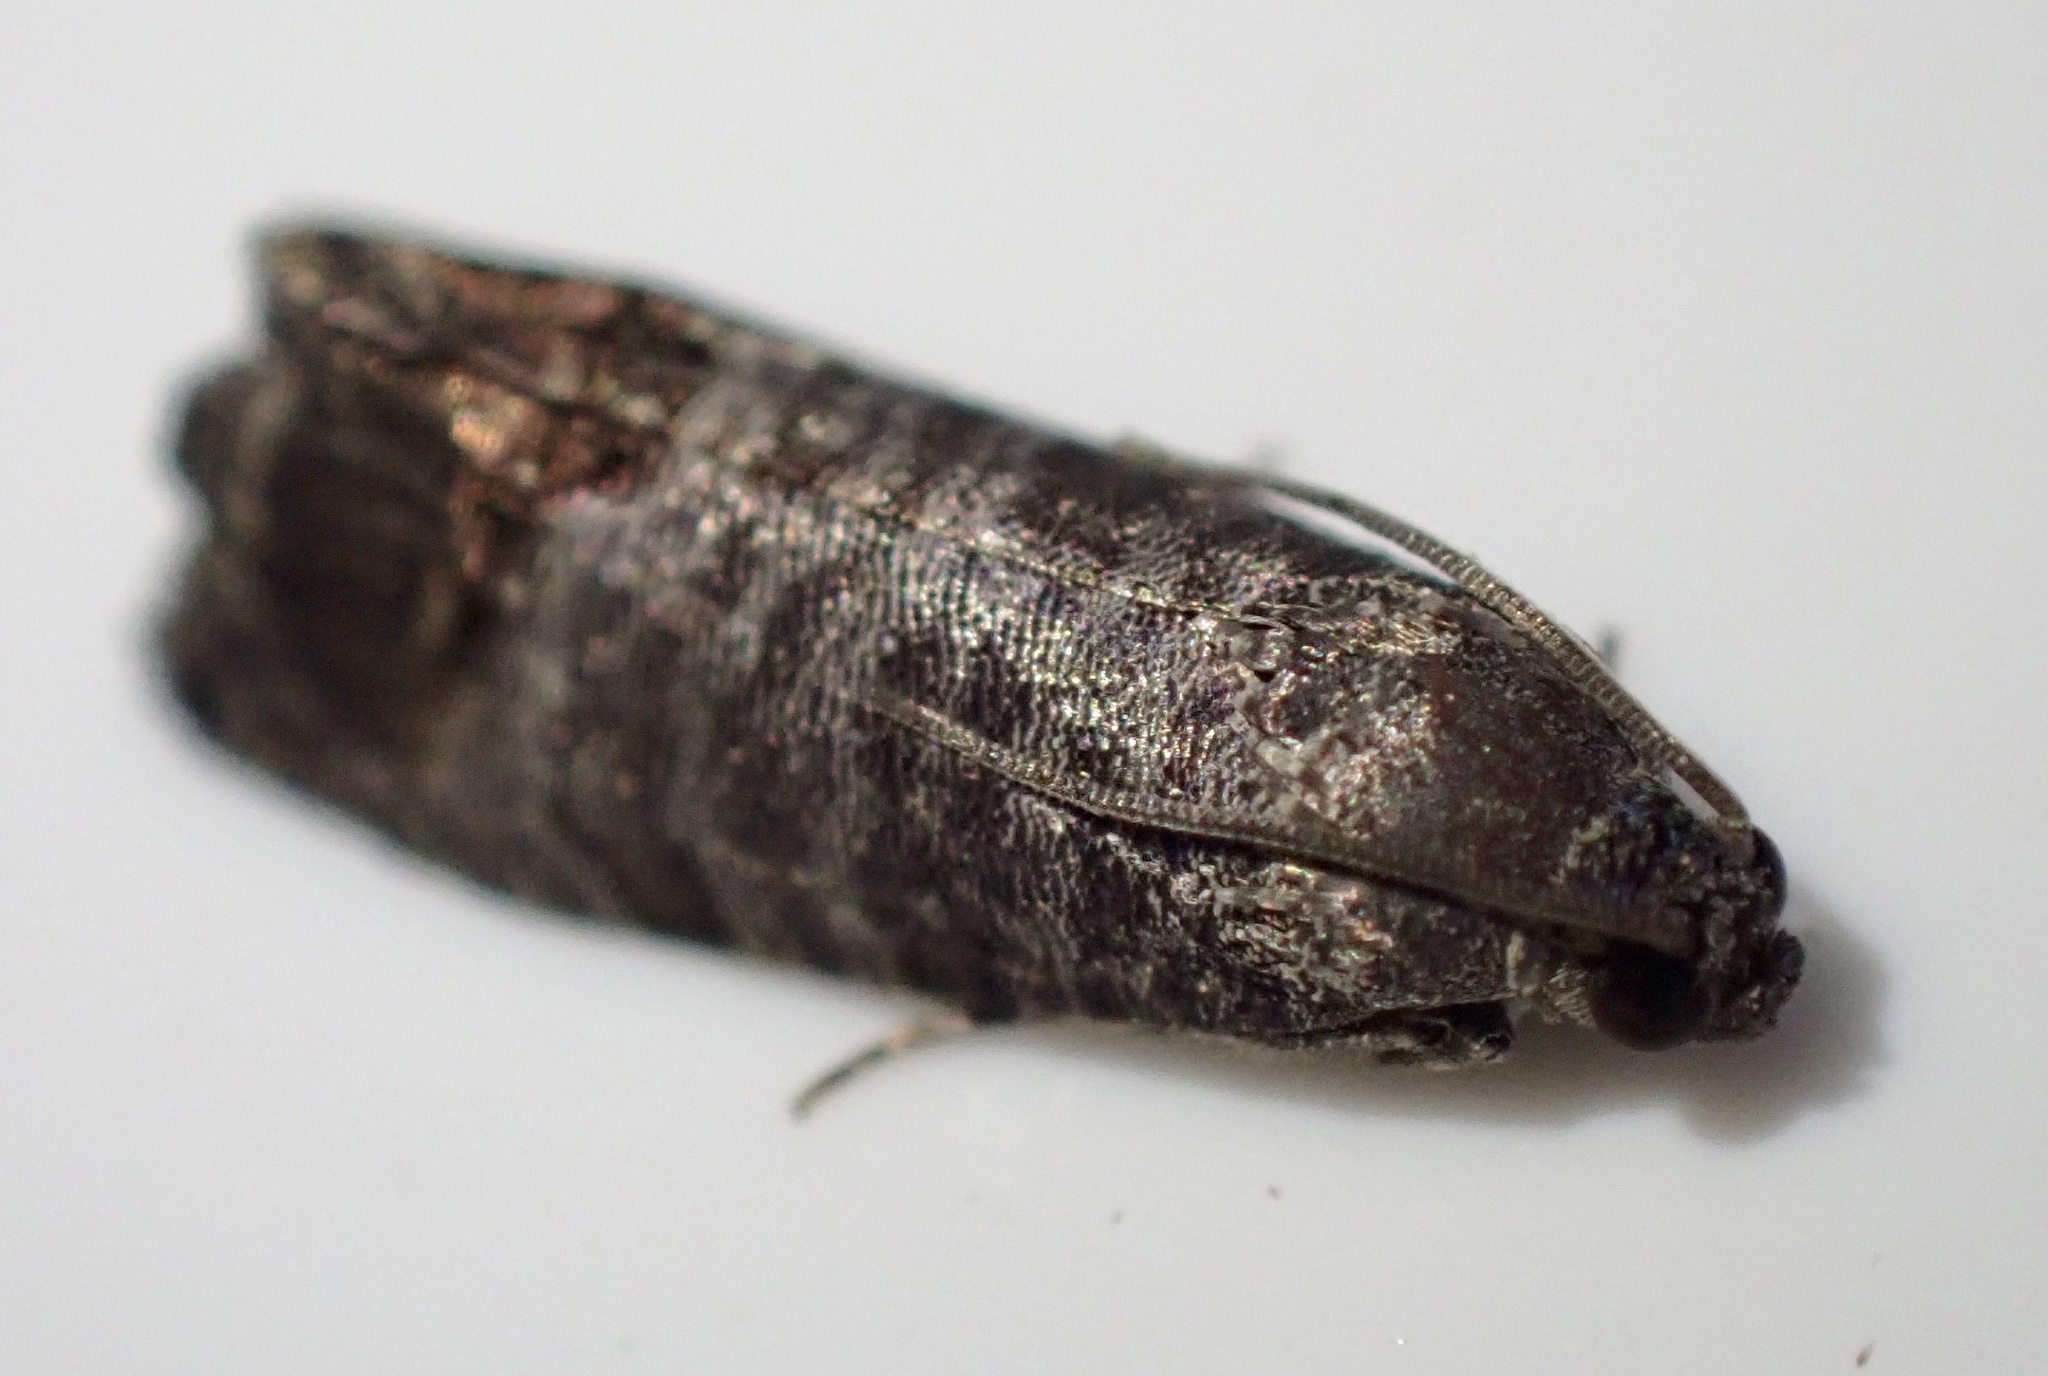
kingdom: Animalia
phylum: Arthropoda
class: Insecta
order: Lepidoptera
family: Tortricidae
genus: Cydia
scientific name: Cydia pomonella
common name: Codling moth
